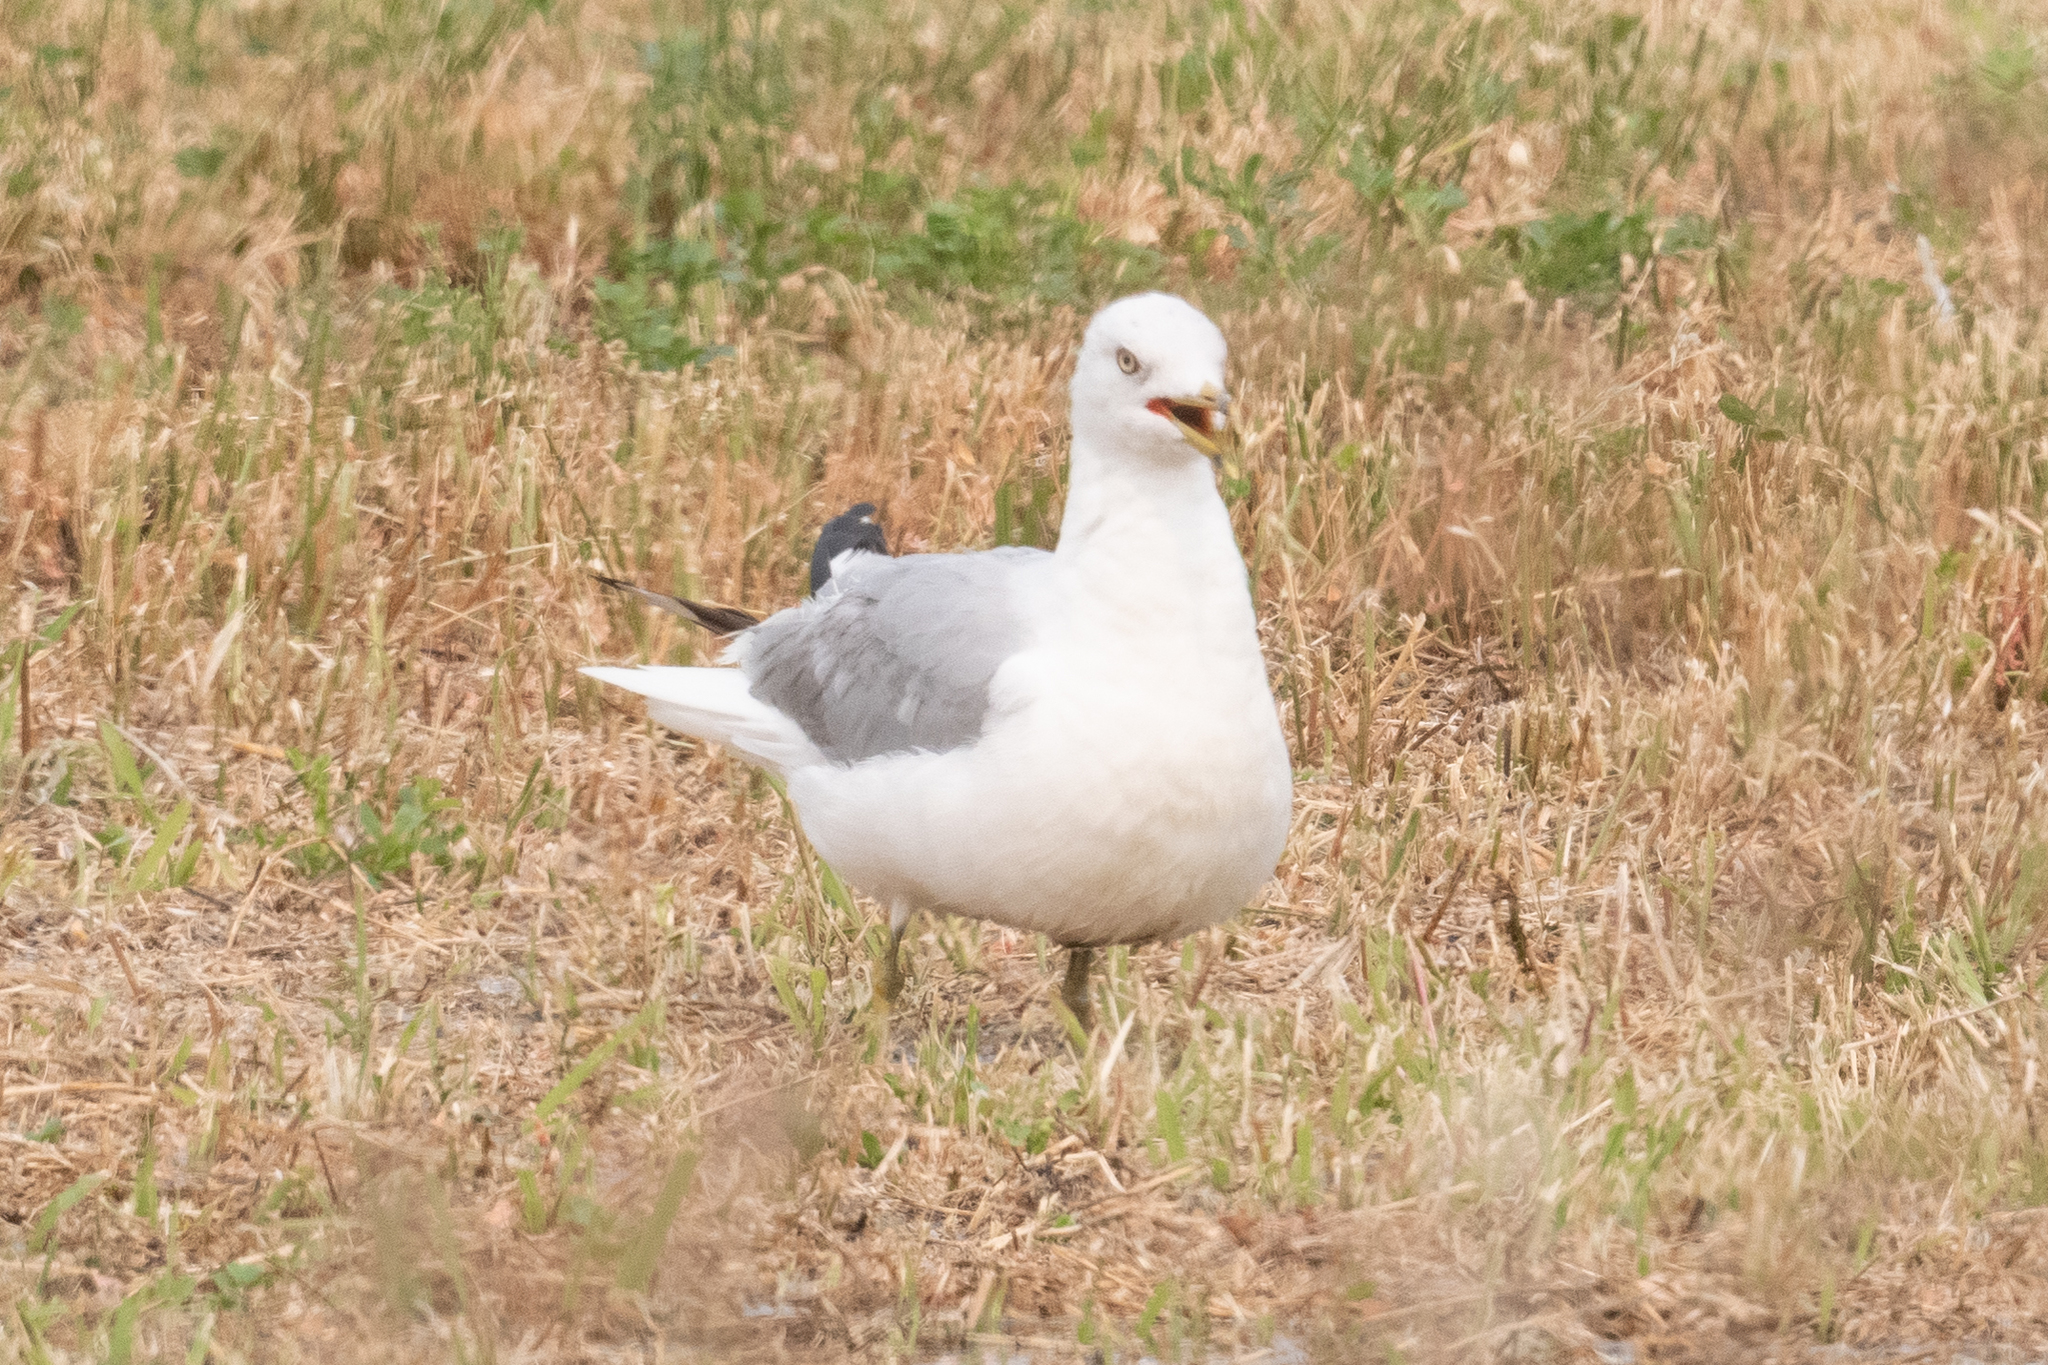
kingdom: Animalia
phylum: Chordata
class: Aves
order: Charadriiformes
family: Laridae
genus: Larus
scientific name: Larus delawarensis
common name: Ring-billed gull
